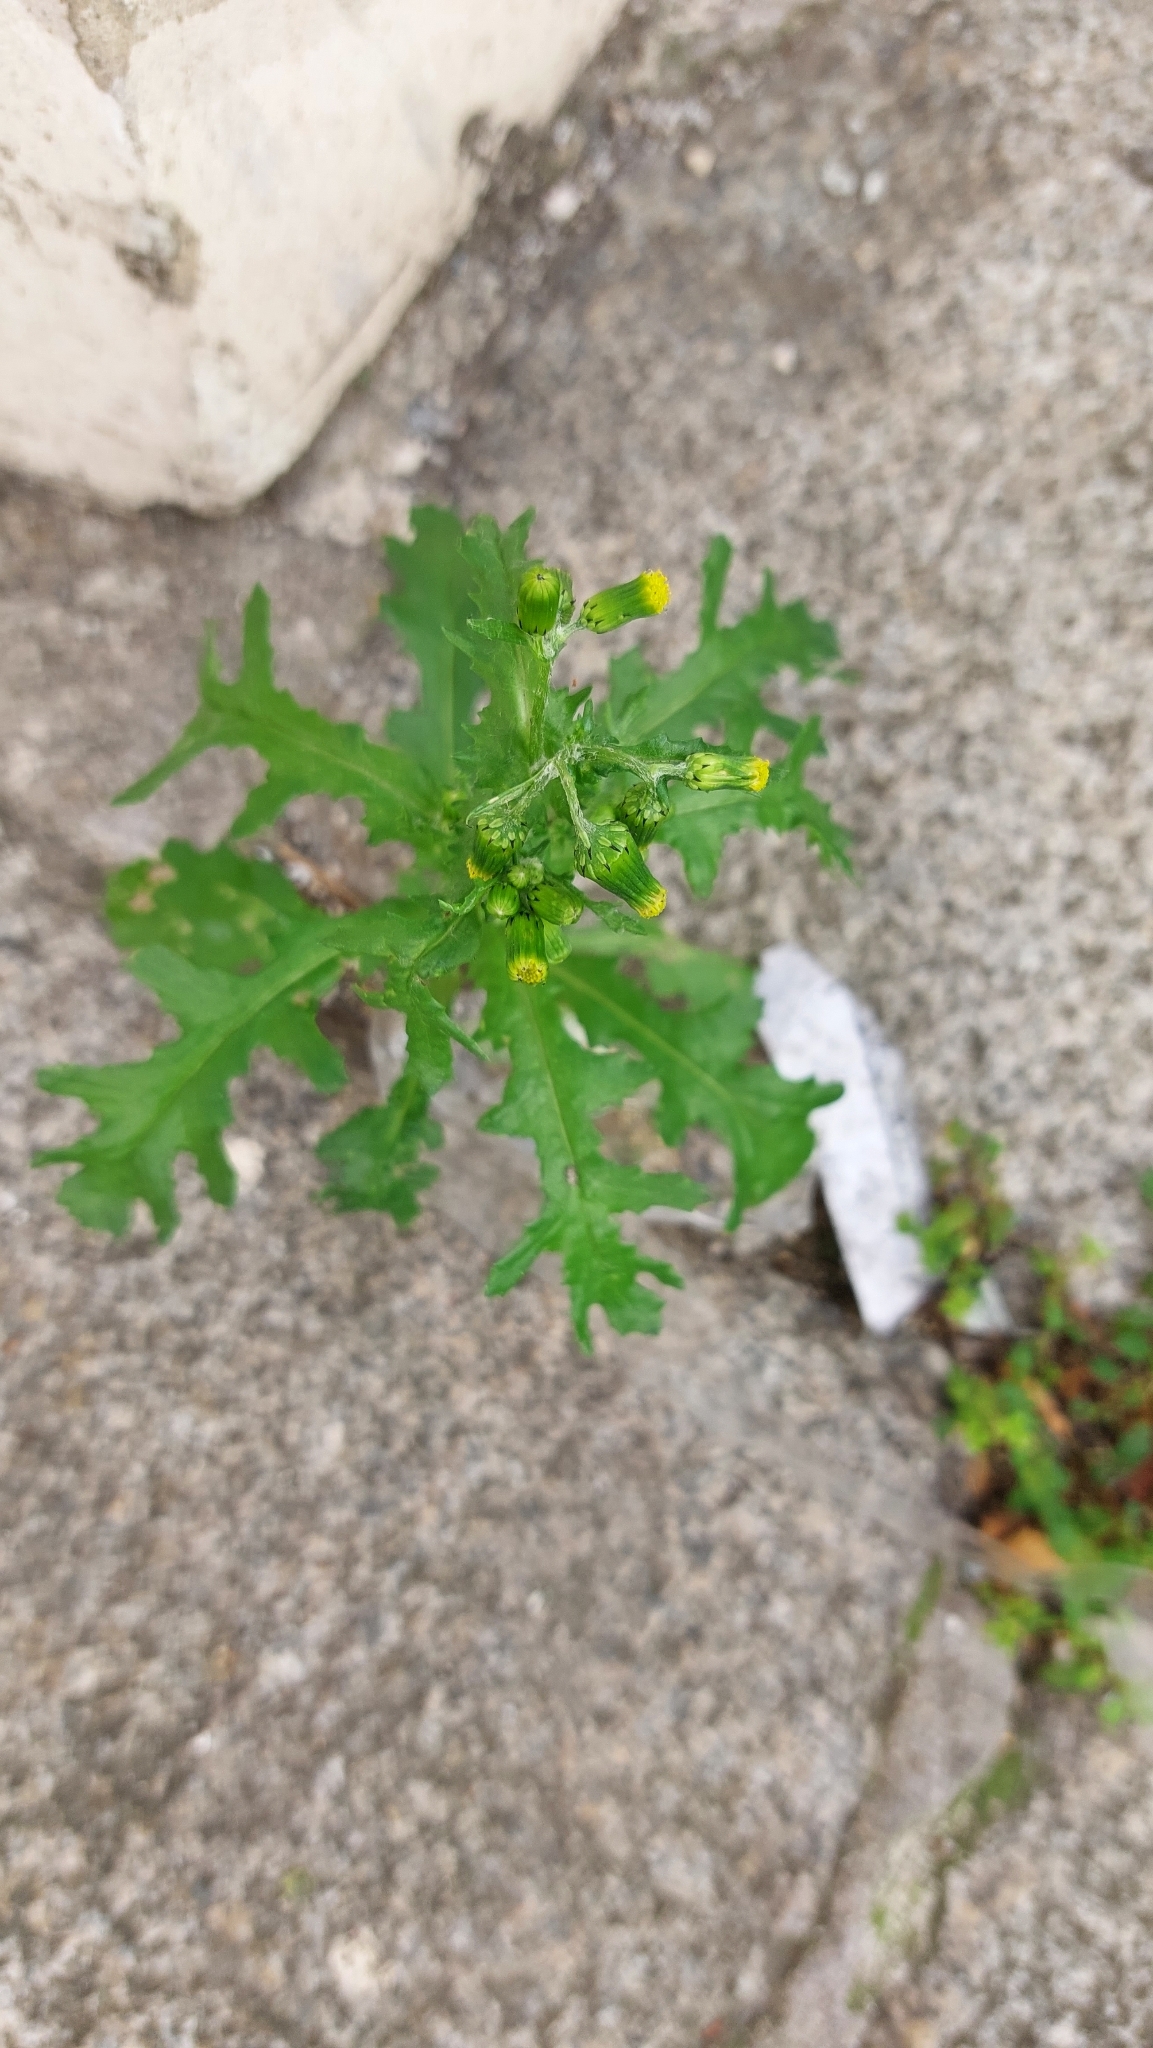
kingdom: Plantae
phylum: Tracheophyta
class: Magnoliopsida
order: Asterales
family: Asteraceae
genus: Senecio
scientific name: Senecio vulgaris
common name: Old-man-in-the-spring
